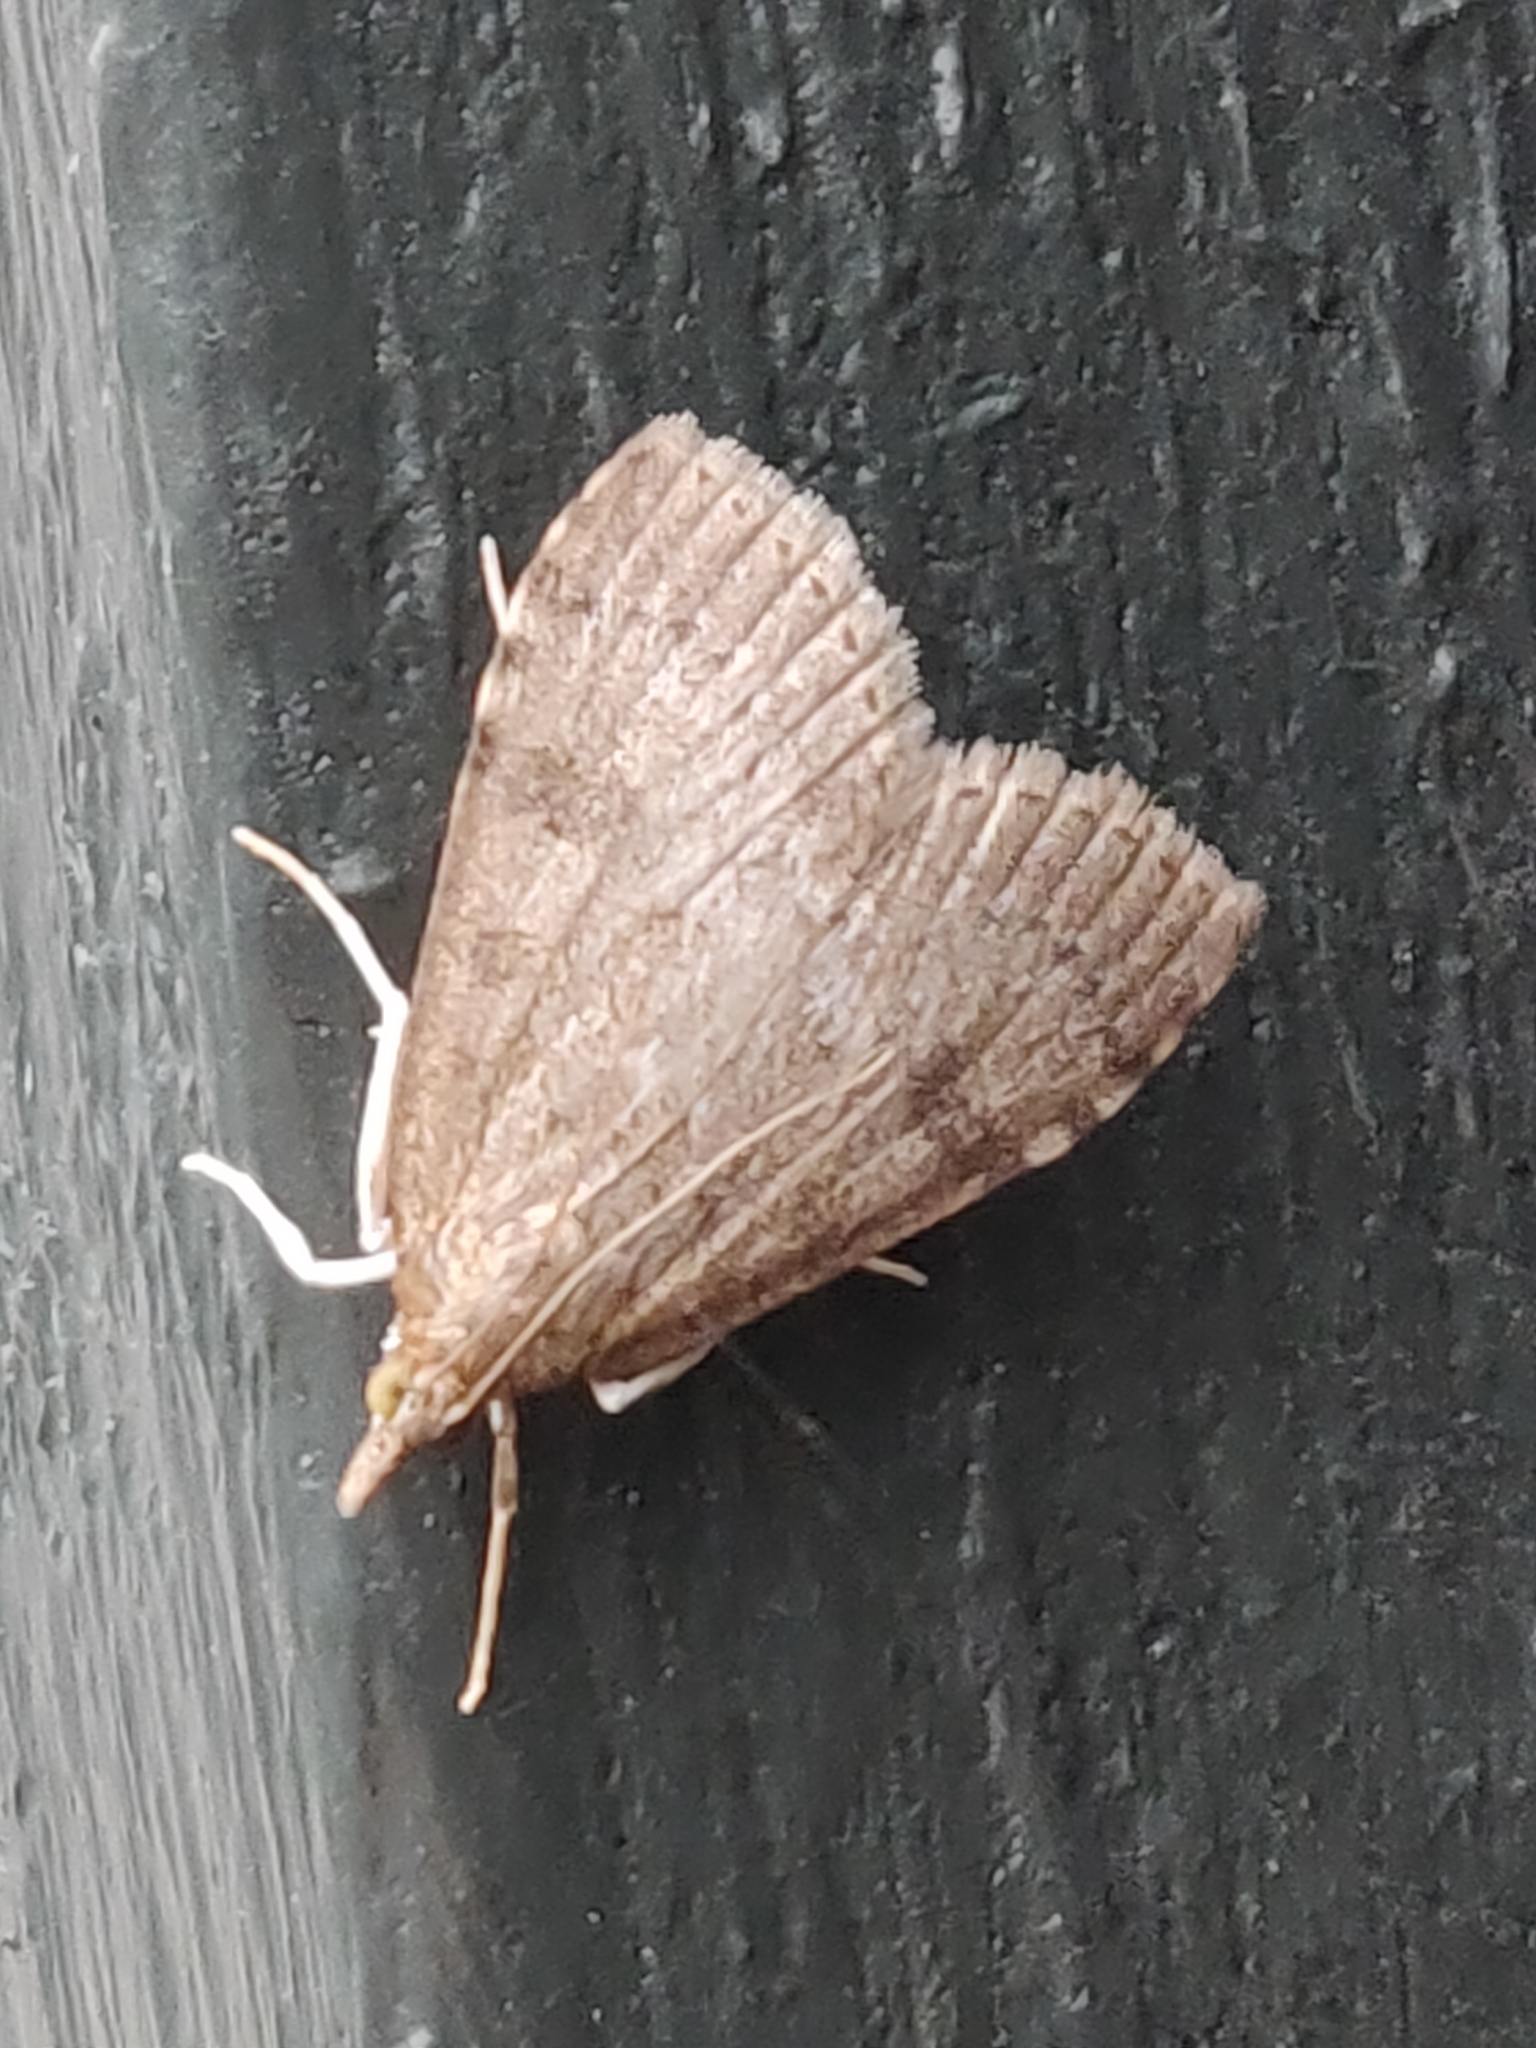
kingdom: Animalia
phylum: Arthropoda
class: Insecta
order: Lepidoptera
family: Crambidae
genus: Udea
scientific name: Udea prunalis
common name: Dusky pearl
